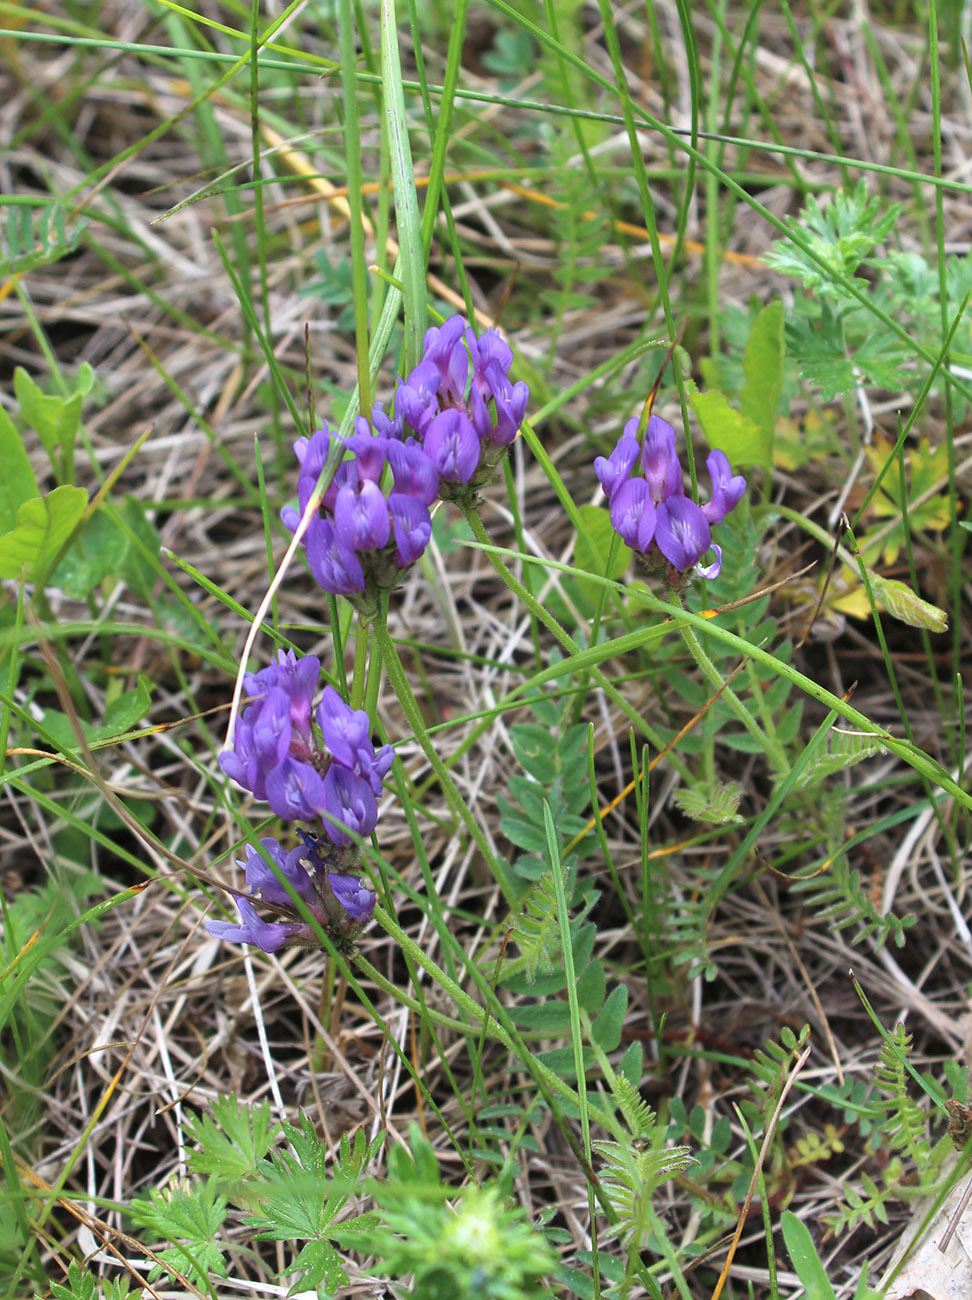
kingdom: Plantae
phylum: Tracheophyta
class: Magnoliopsida
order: Fabales
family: Fabaceae
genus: Astragalus
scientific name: Astragalus danicus
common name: Purple milk-vetch
